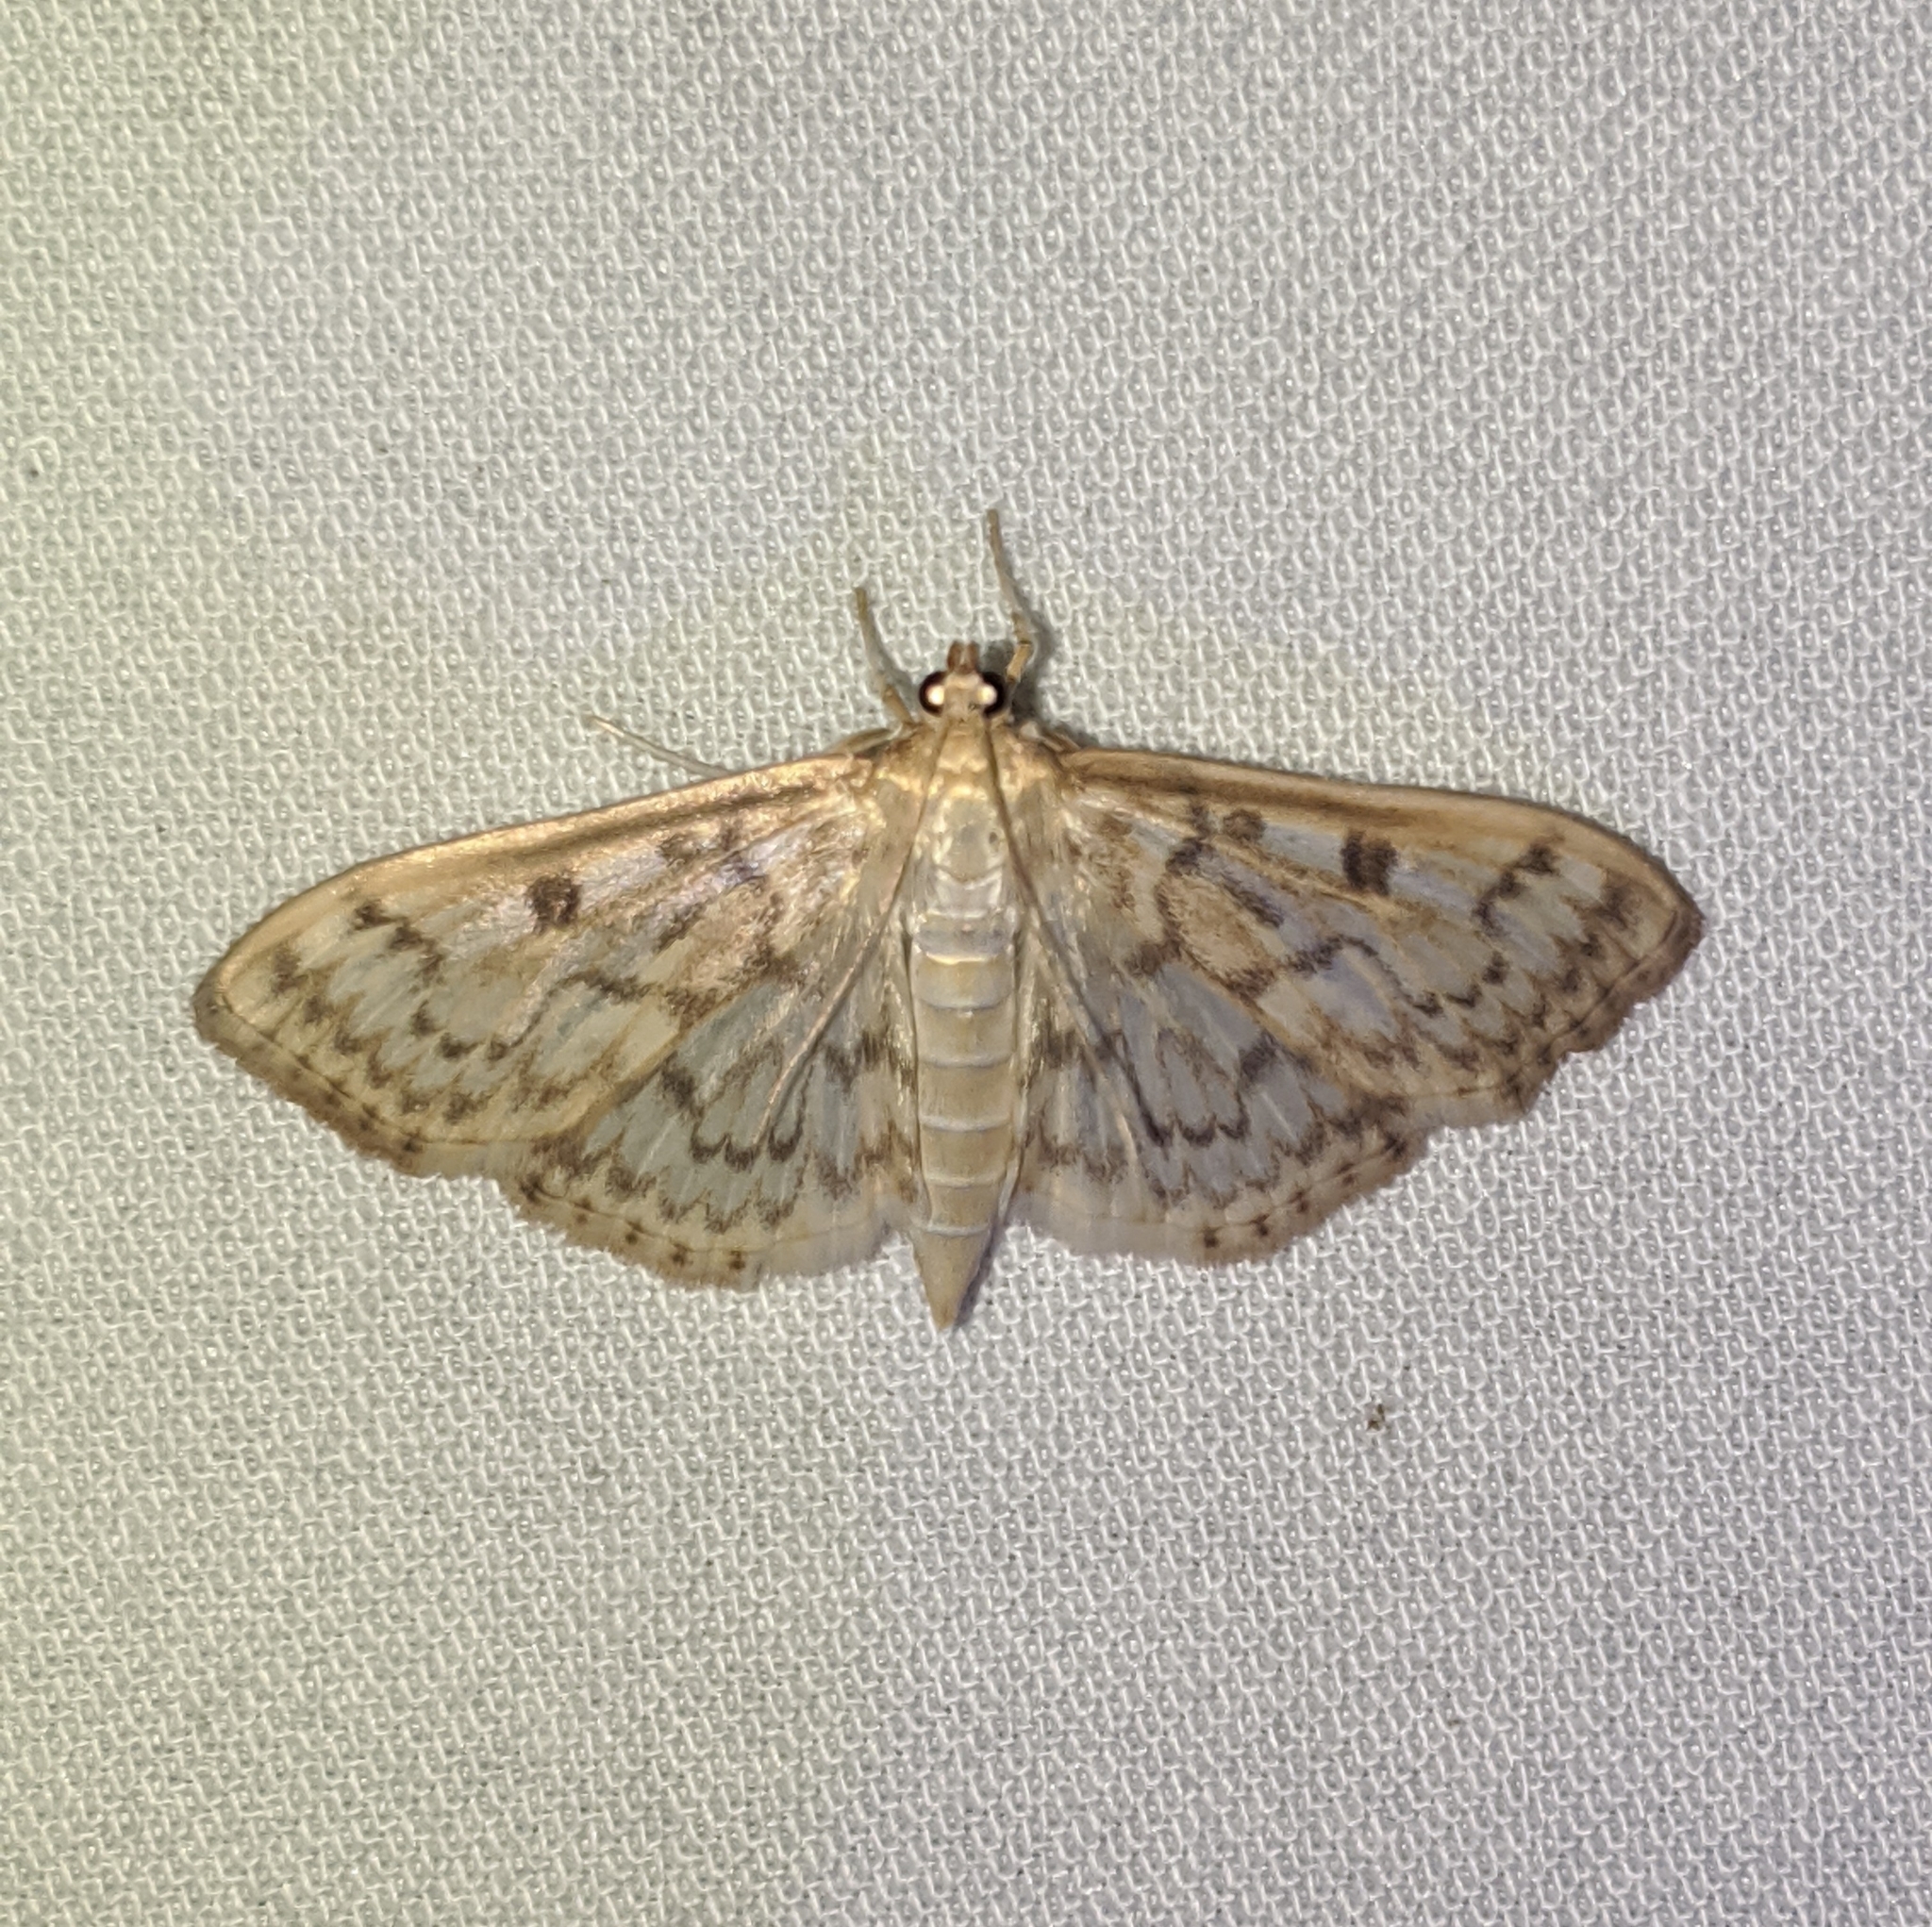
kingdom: Animalia
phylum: Arthropoda
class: Insecta
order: Lepidoptera
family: Crambidae
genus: Herpetogramma
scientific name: Herpetogramma aquilonalis
